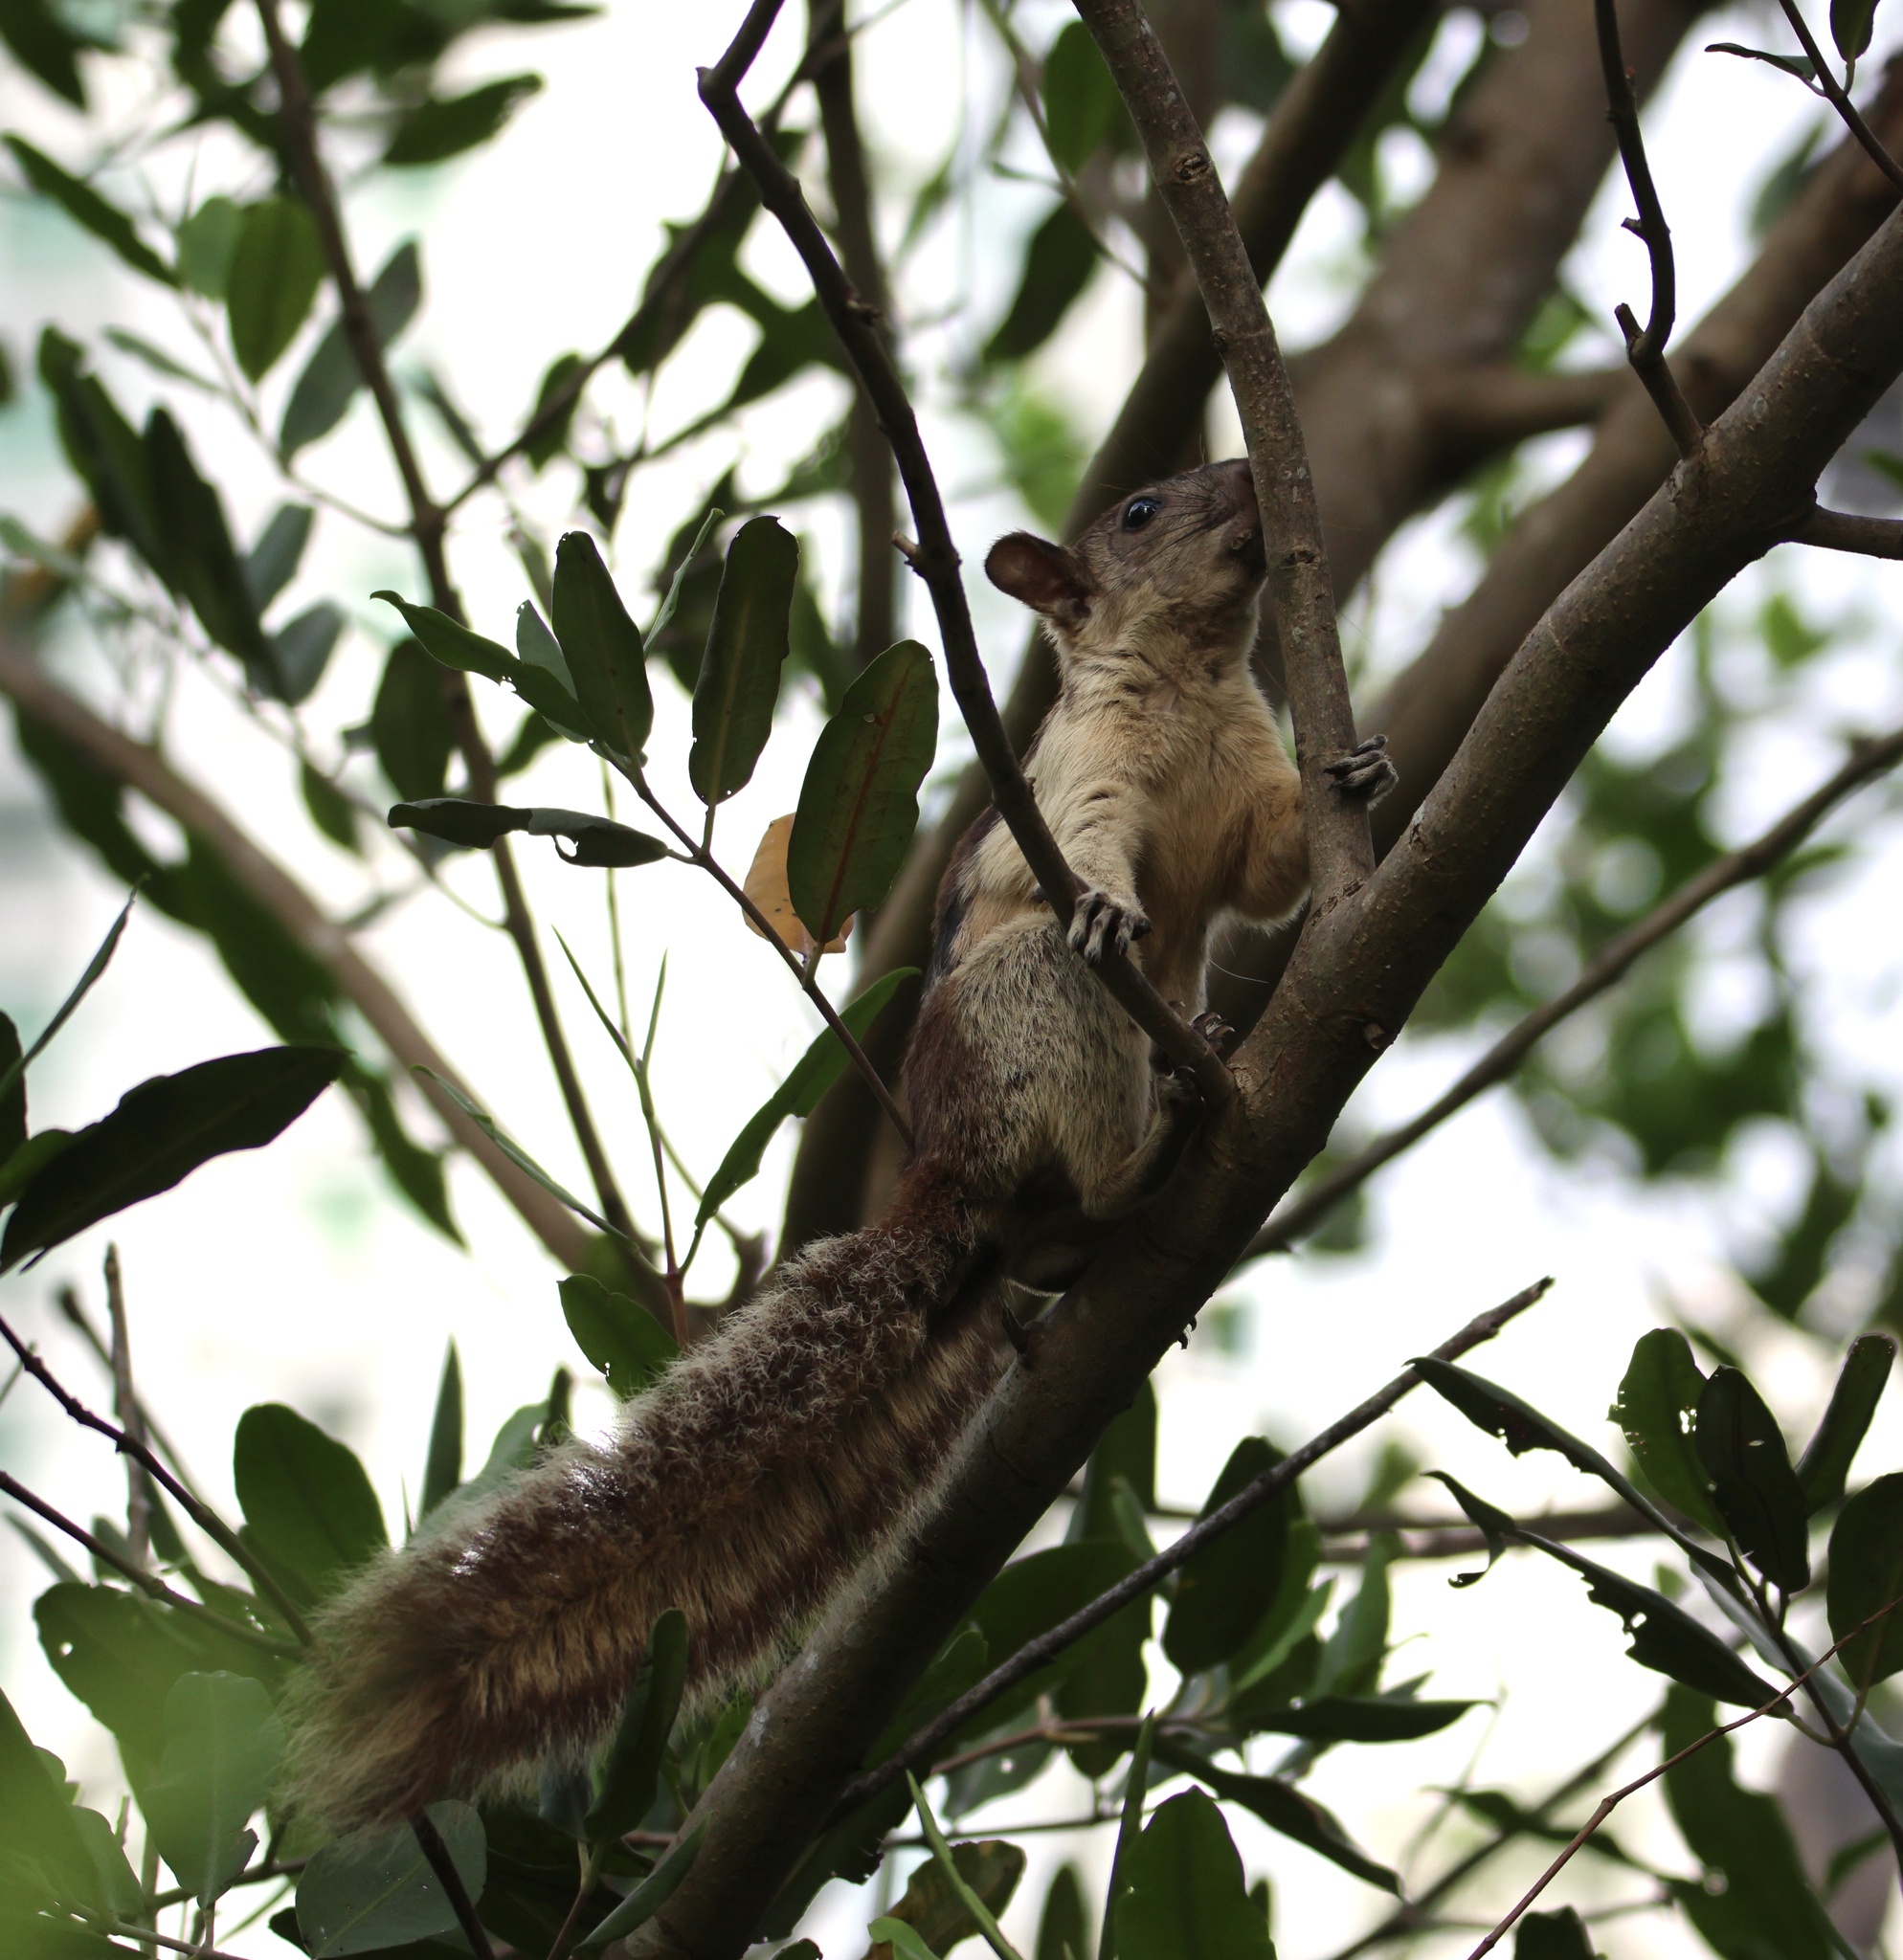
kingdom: Animalia
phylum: Chordata
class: Mammalia
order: Rodentia
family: Sciuridae
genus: Sciurus
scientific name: Sciurus variegatoides
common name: Variegated squirrel
